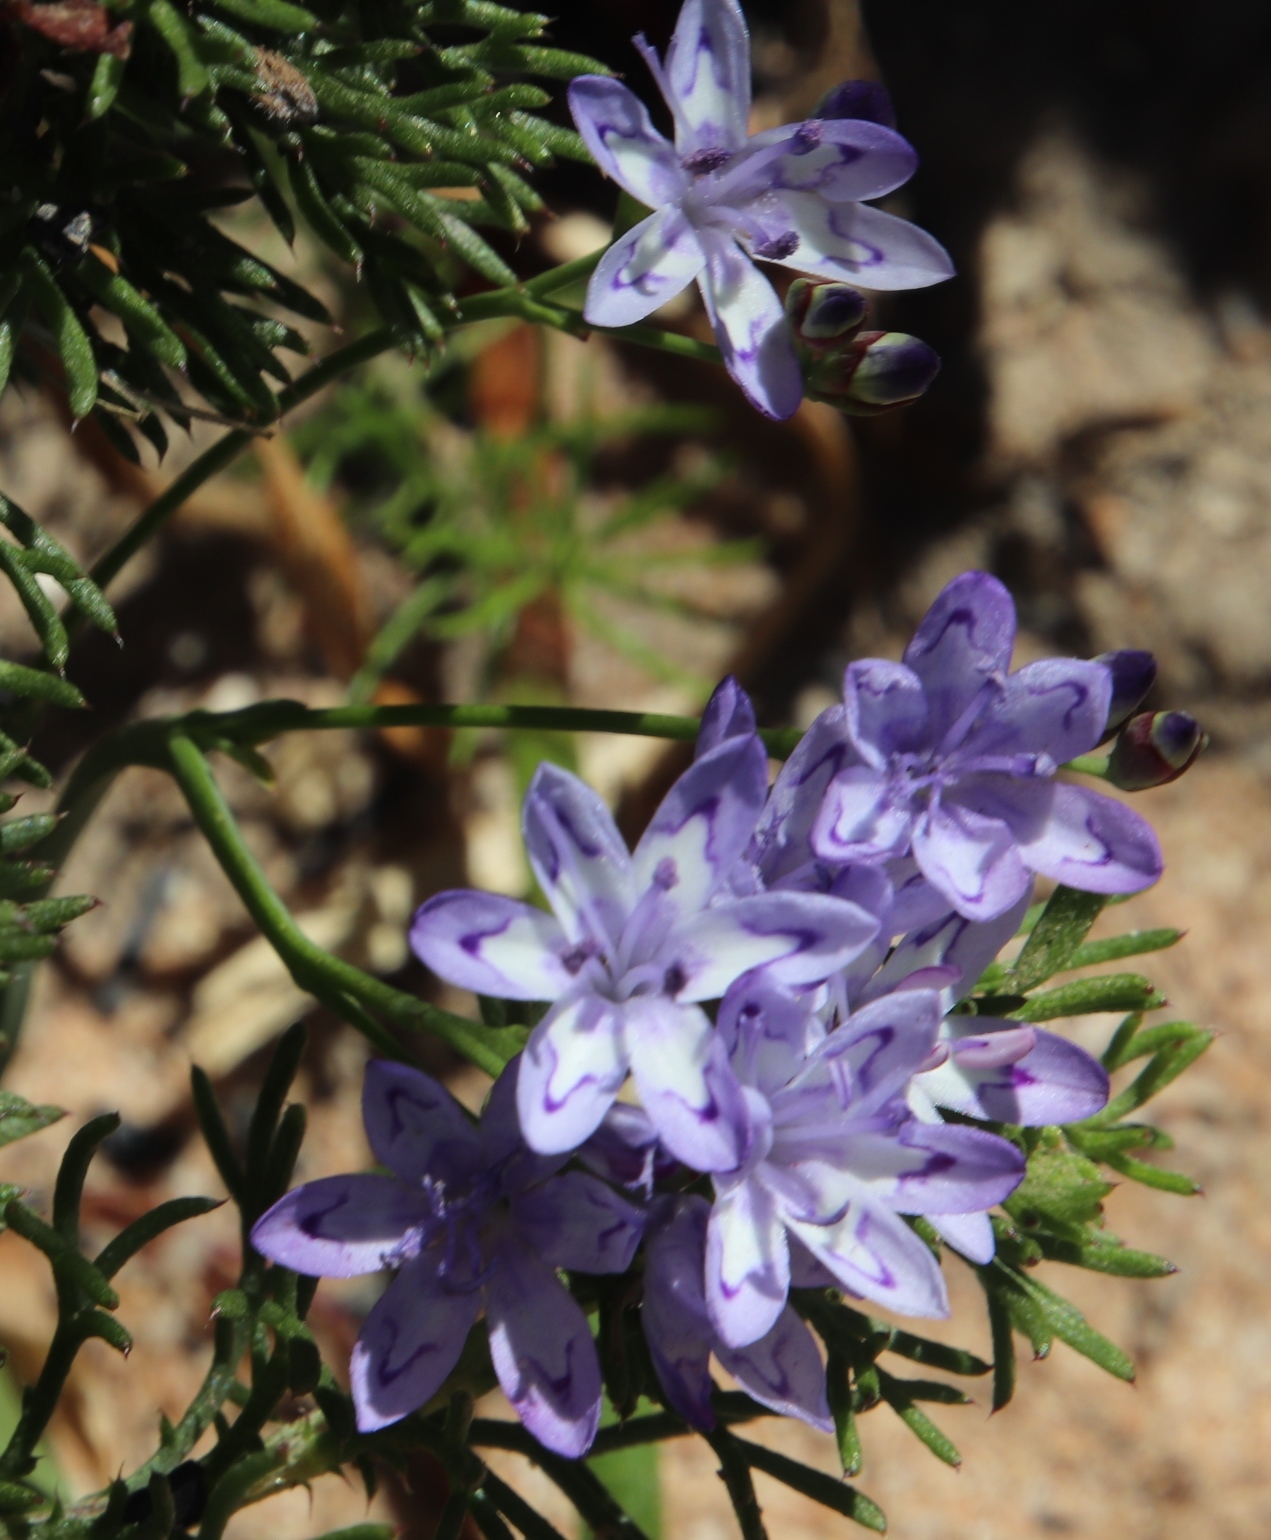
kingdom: Plantae
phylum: Tracheophyta
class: Liliopsida
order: Asparagales
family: Iridaceae
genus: Codonorhiza
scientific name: Codonorhiza corymbosa
